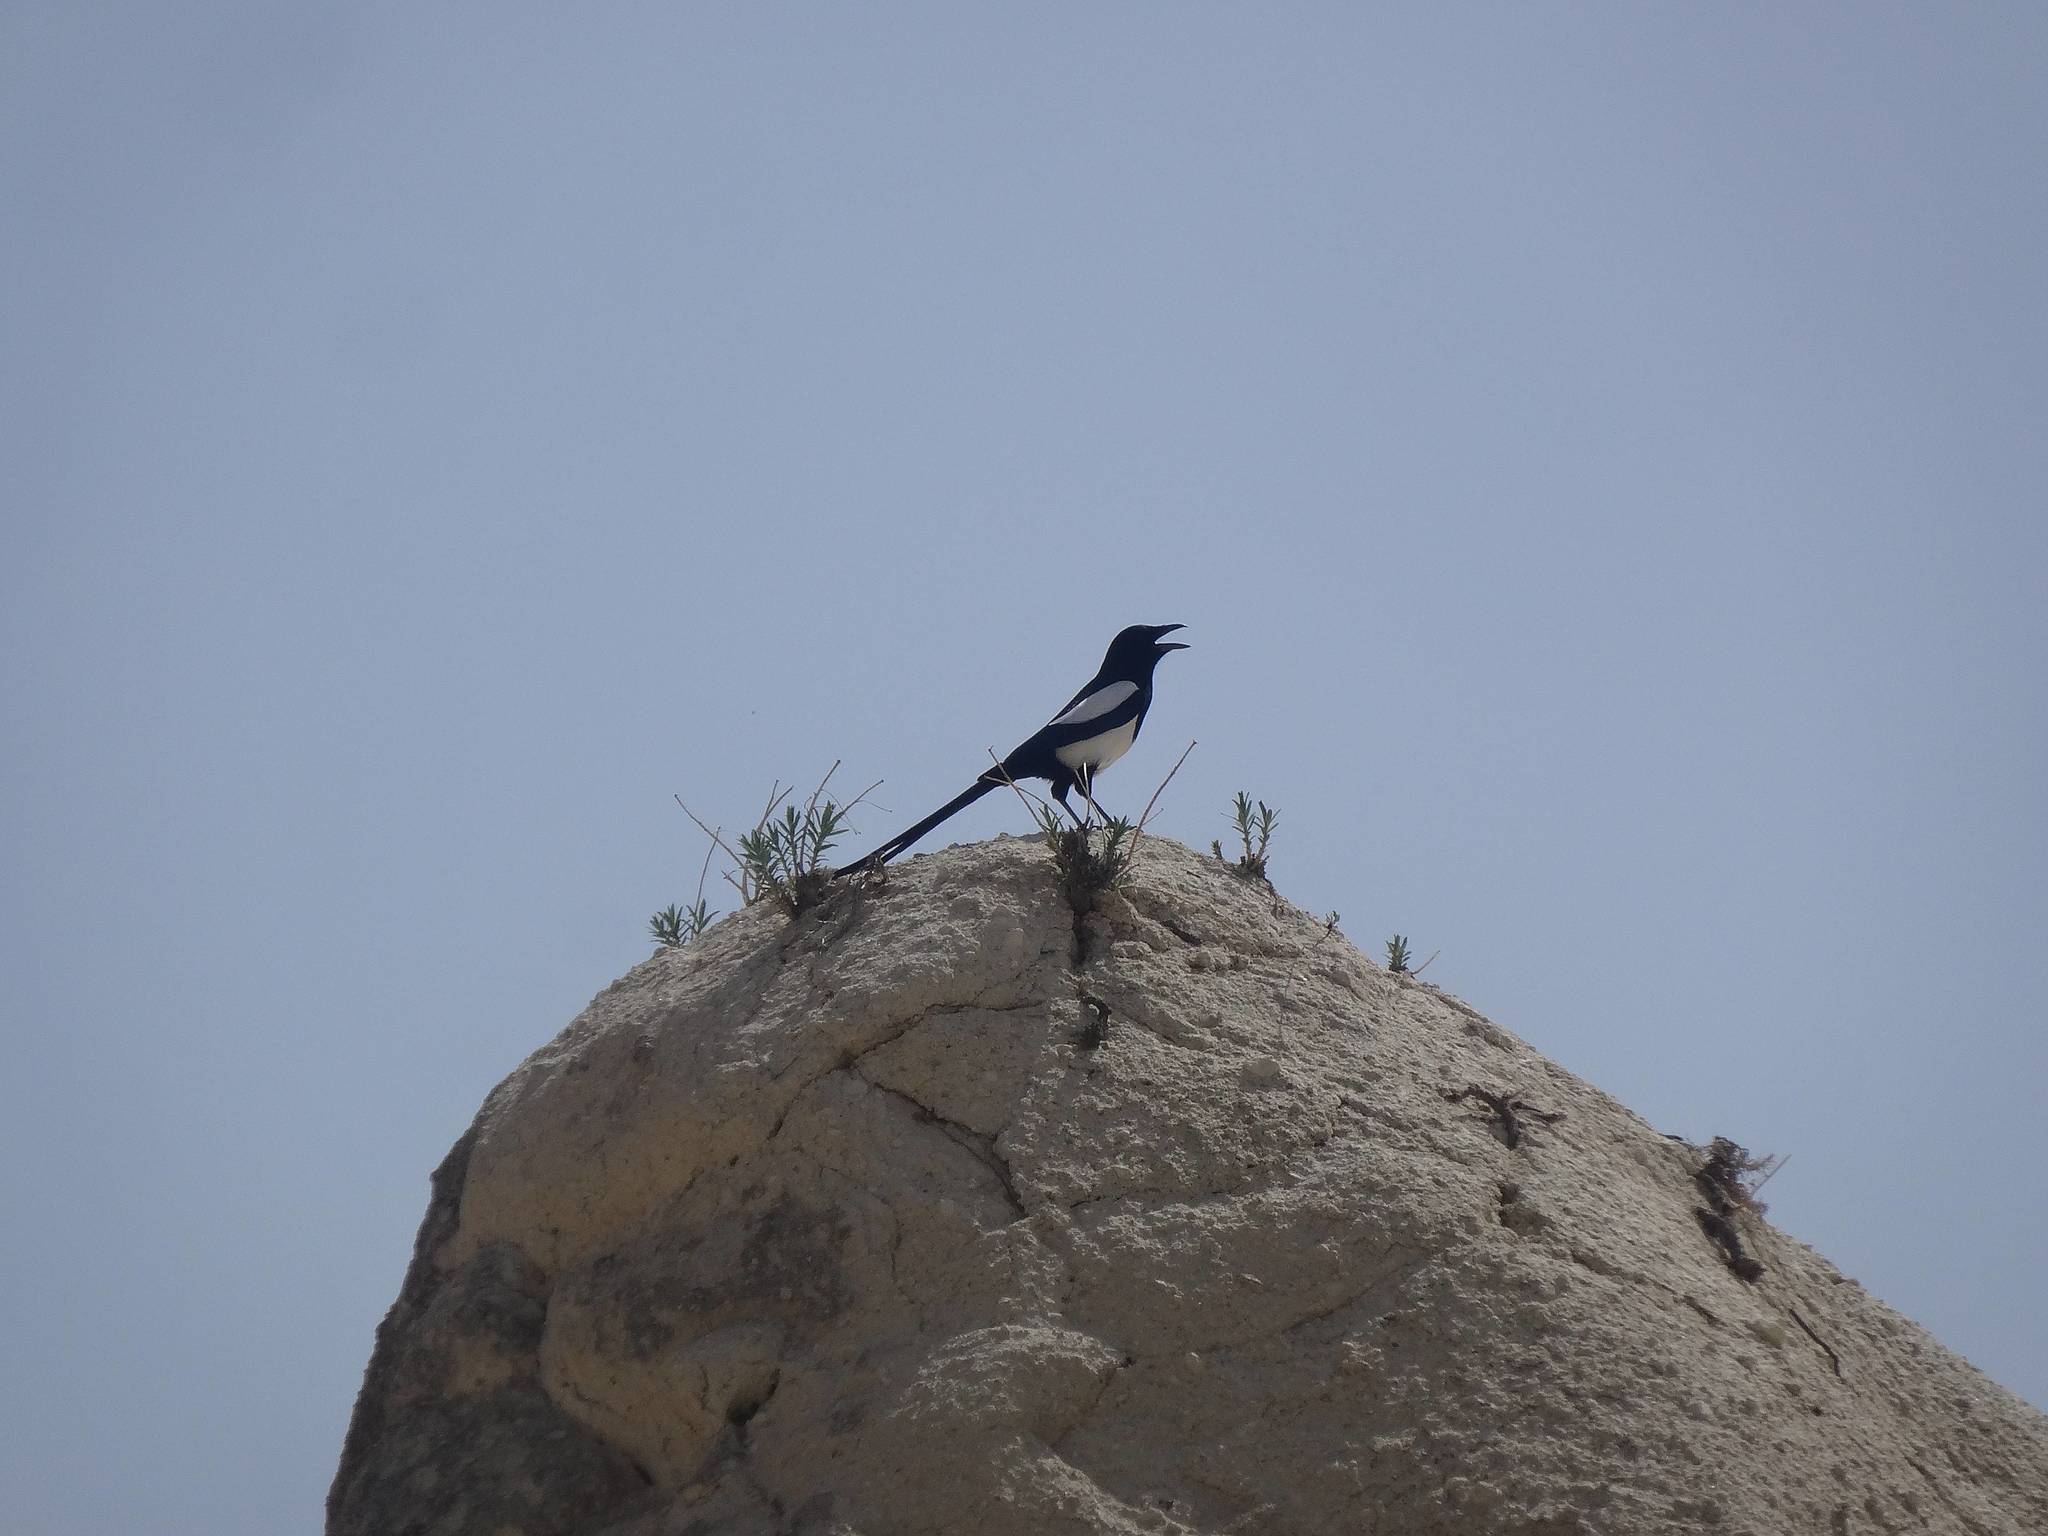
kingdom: Animalia
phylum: Chordata
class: Aves
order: Passeriformes
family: Corvidae
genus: Pica
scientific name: Pica pica
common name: Eurasian magpie
